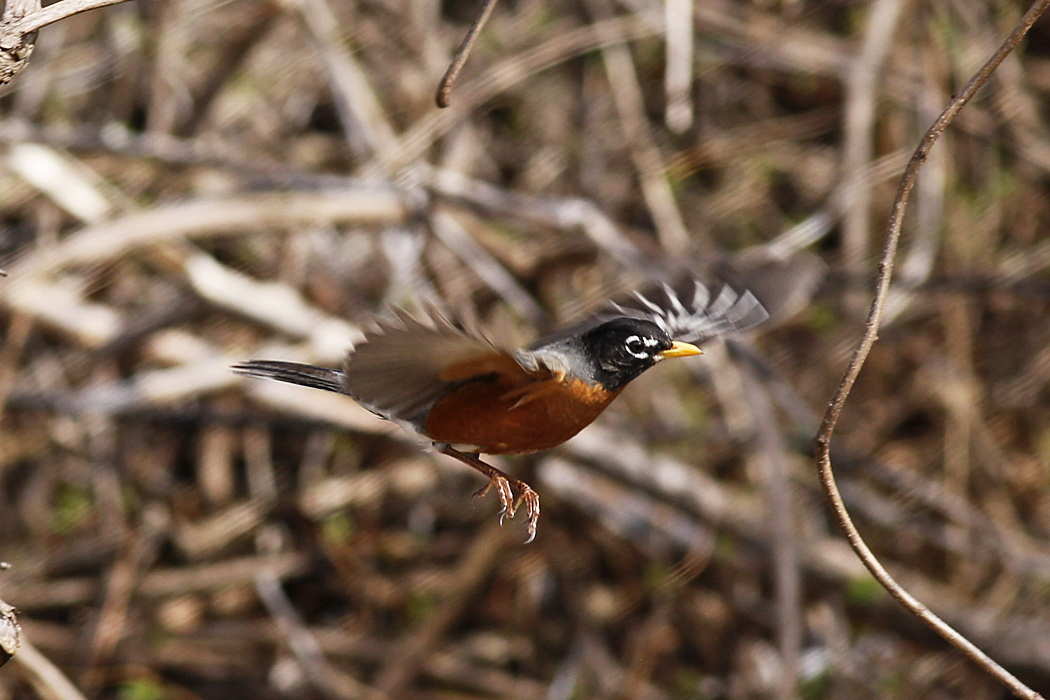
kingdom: Animalia
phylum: Chordata
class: Aves
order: Passeriformes
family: Turdidae
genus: Turdus
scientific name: Turdus migratorius
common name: American robin
